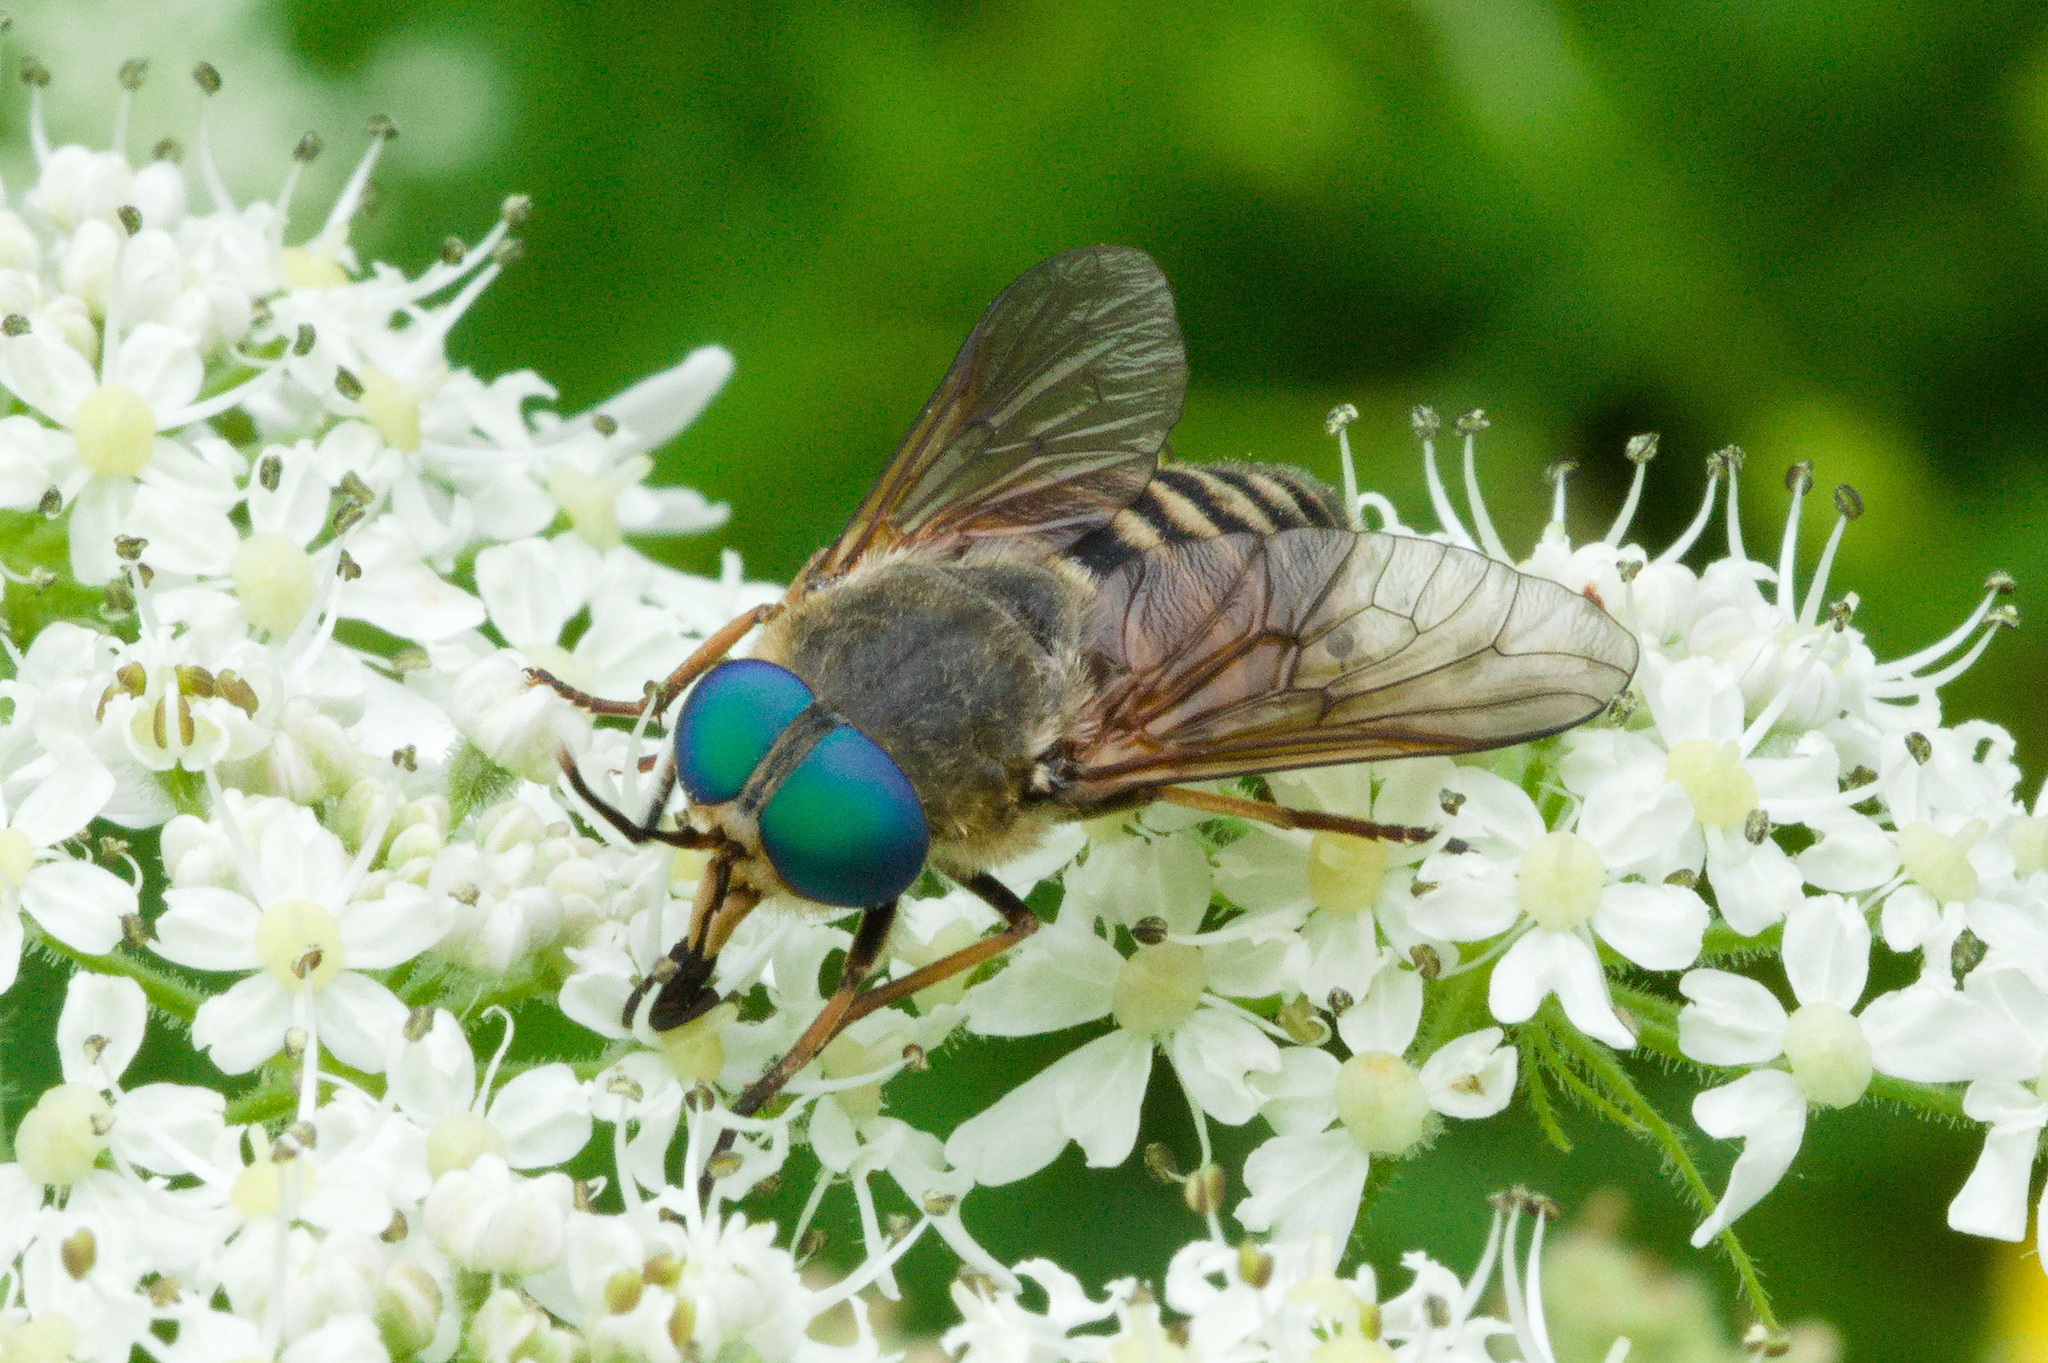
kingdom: Animalia
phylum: Arthropoda
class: Insecta
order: Diptera
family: Tabanidae
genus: Philipomyia
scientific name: Philipomyia aprica
